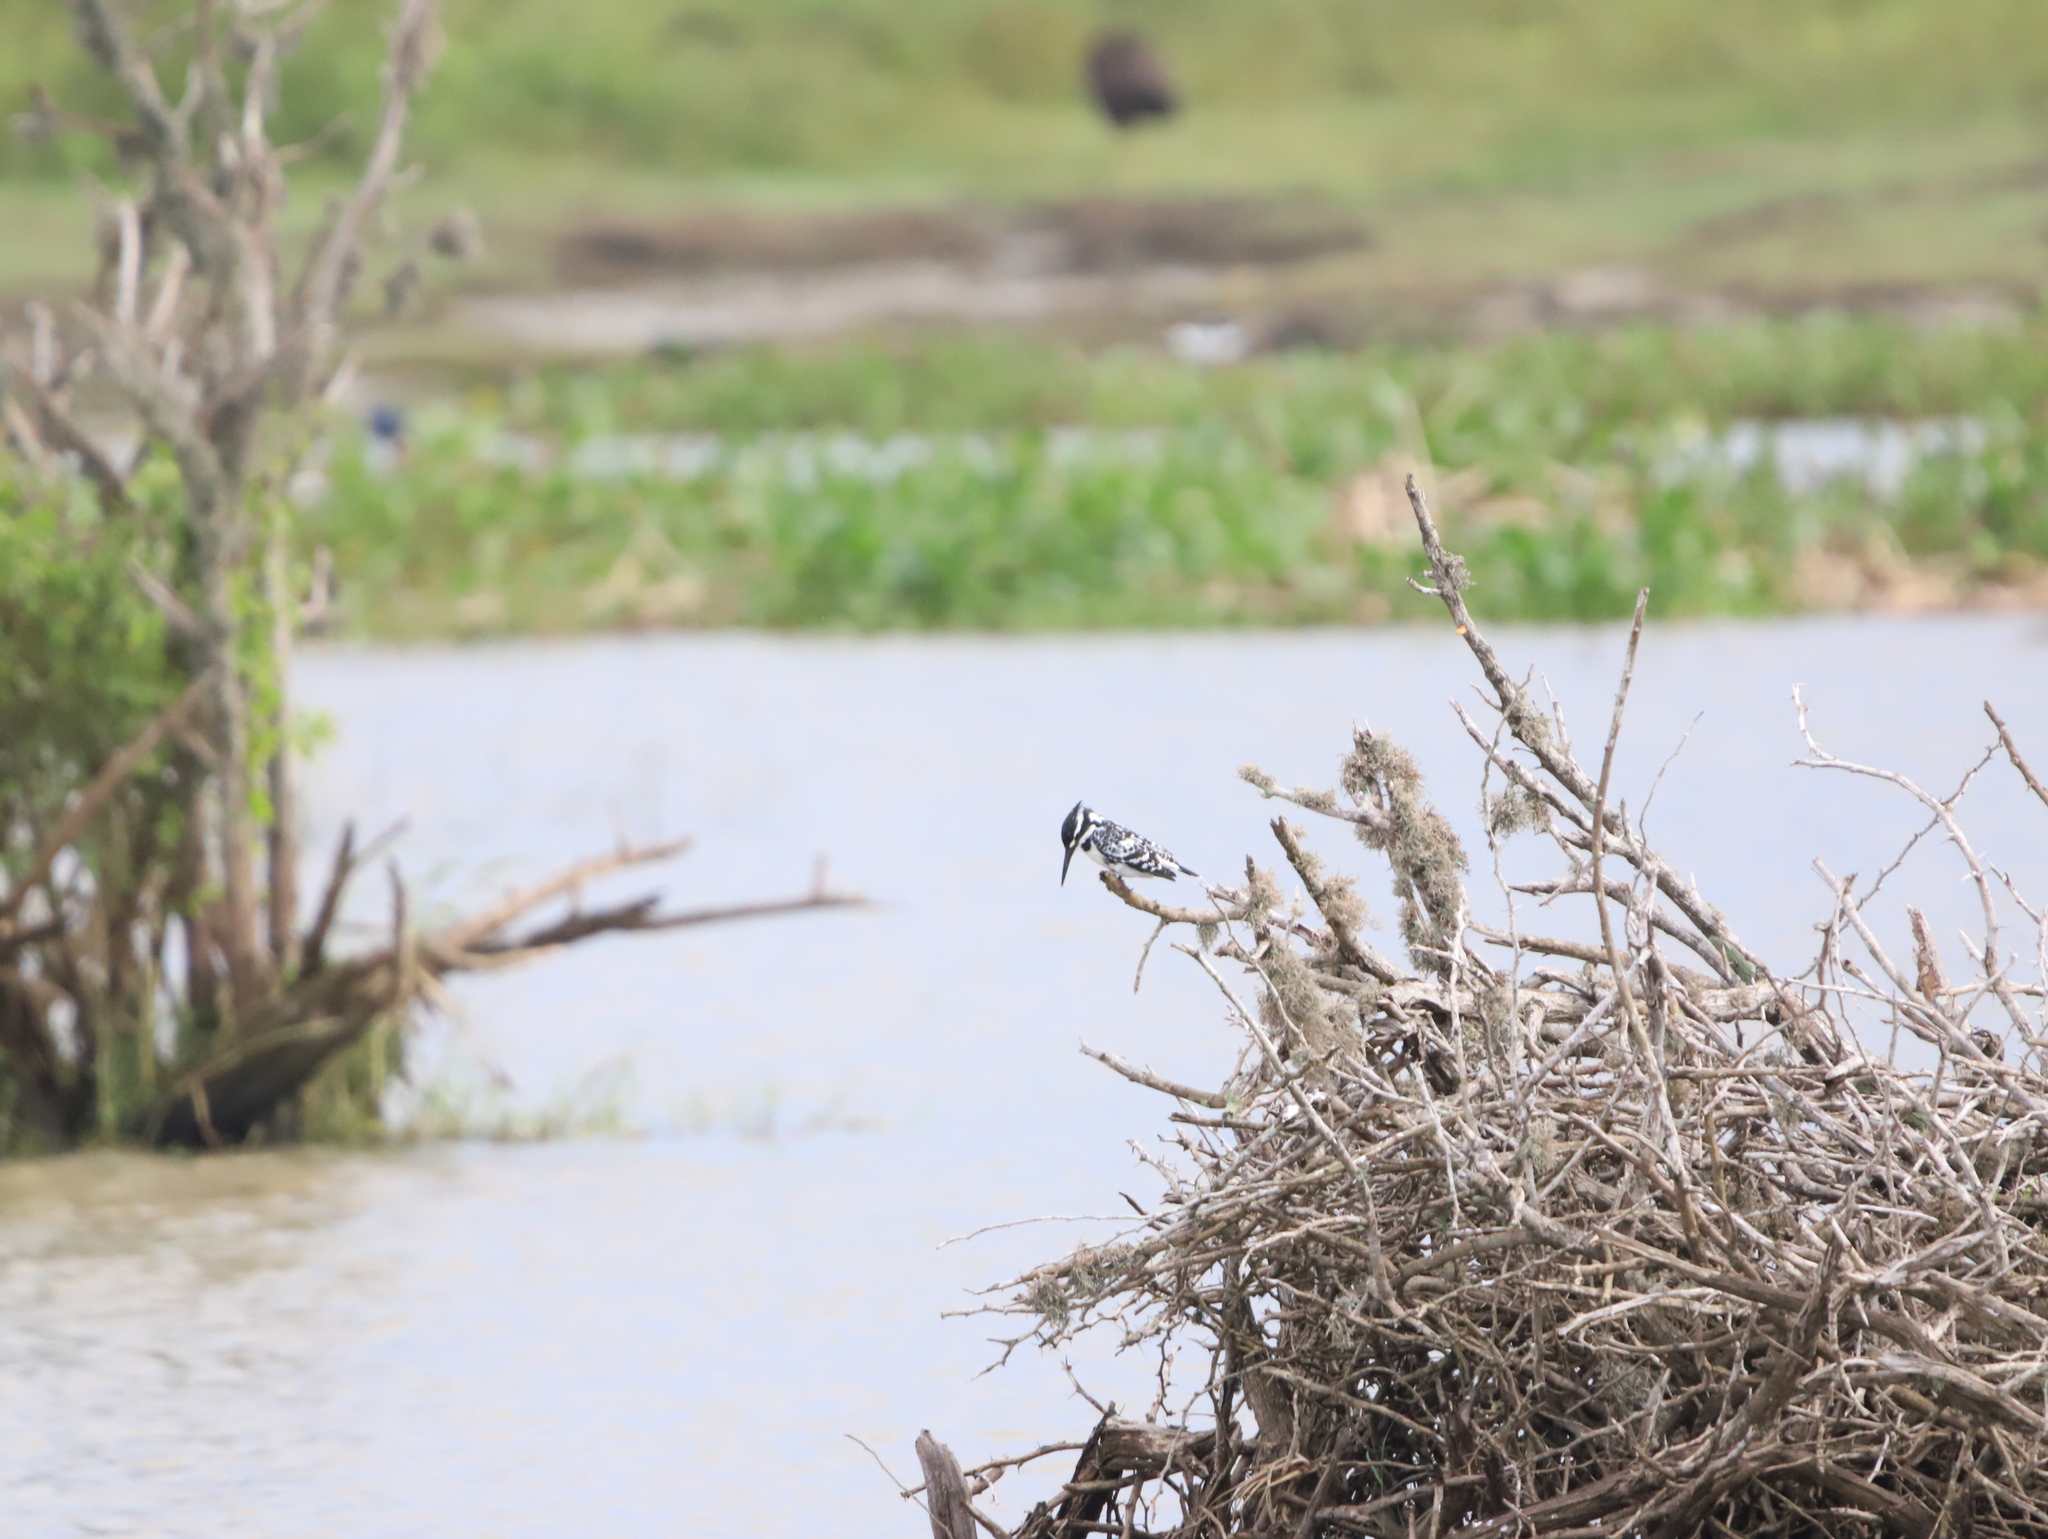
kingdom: Animalia
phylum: Chordata
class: Aves
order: Coraciiformes
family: Alcedinidae
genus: Ceryle
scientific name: Ceryle rudis
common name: Pied kingfisher
